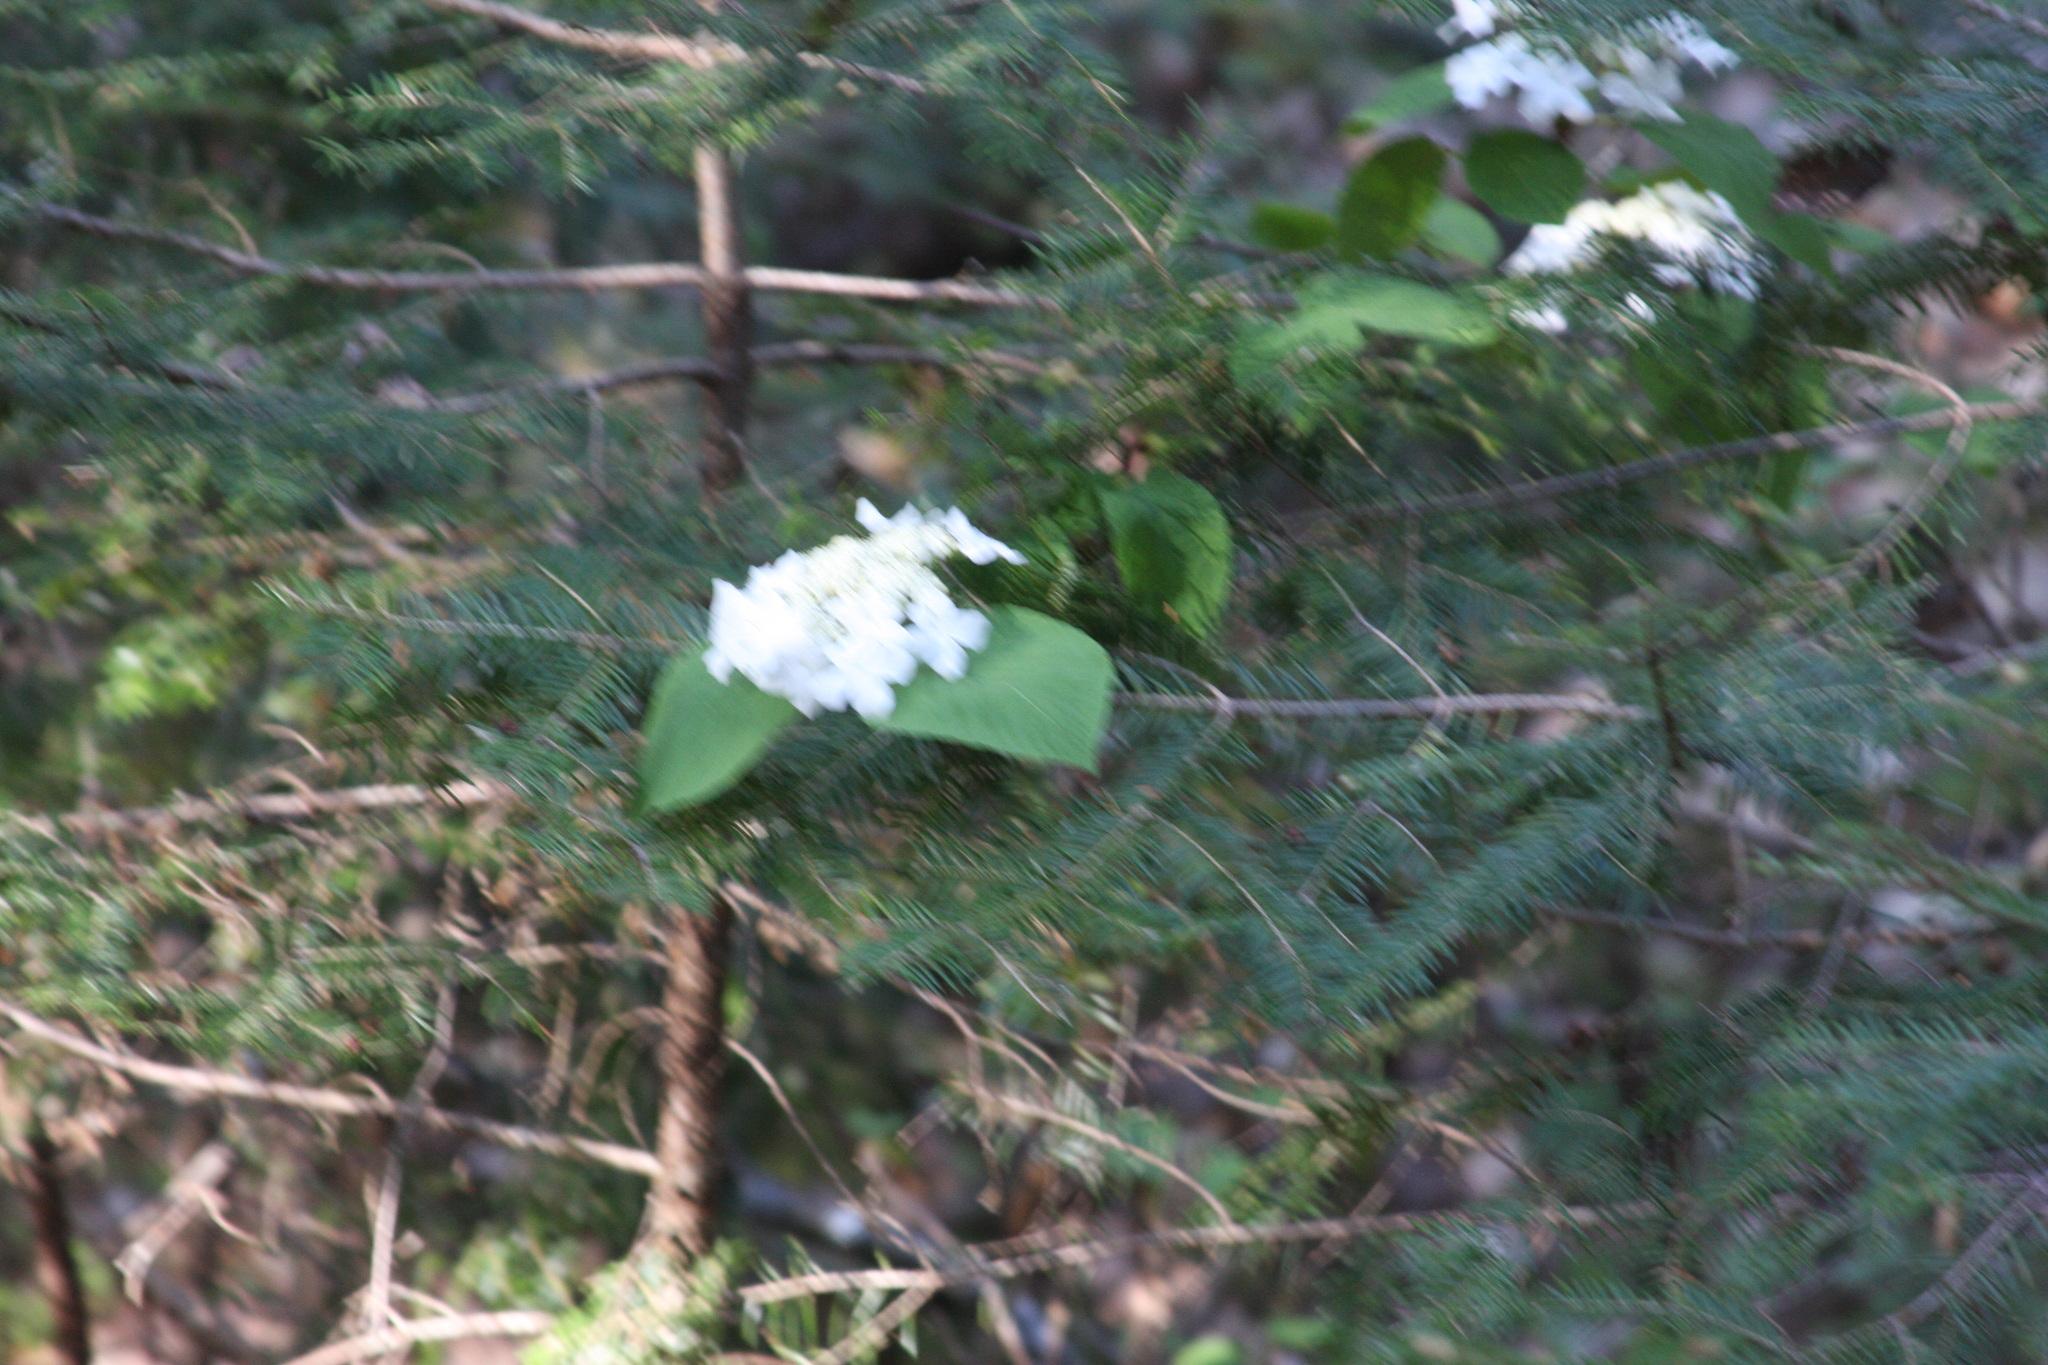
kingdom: Plantae
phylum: Tracheophyta
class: Magnoliopsida
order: Dipsacales
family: Viburnaceae
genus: Viburnum
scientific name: Viburnum lantanoides
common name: Hobblebush
